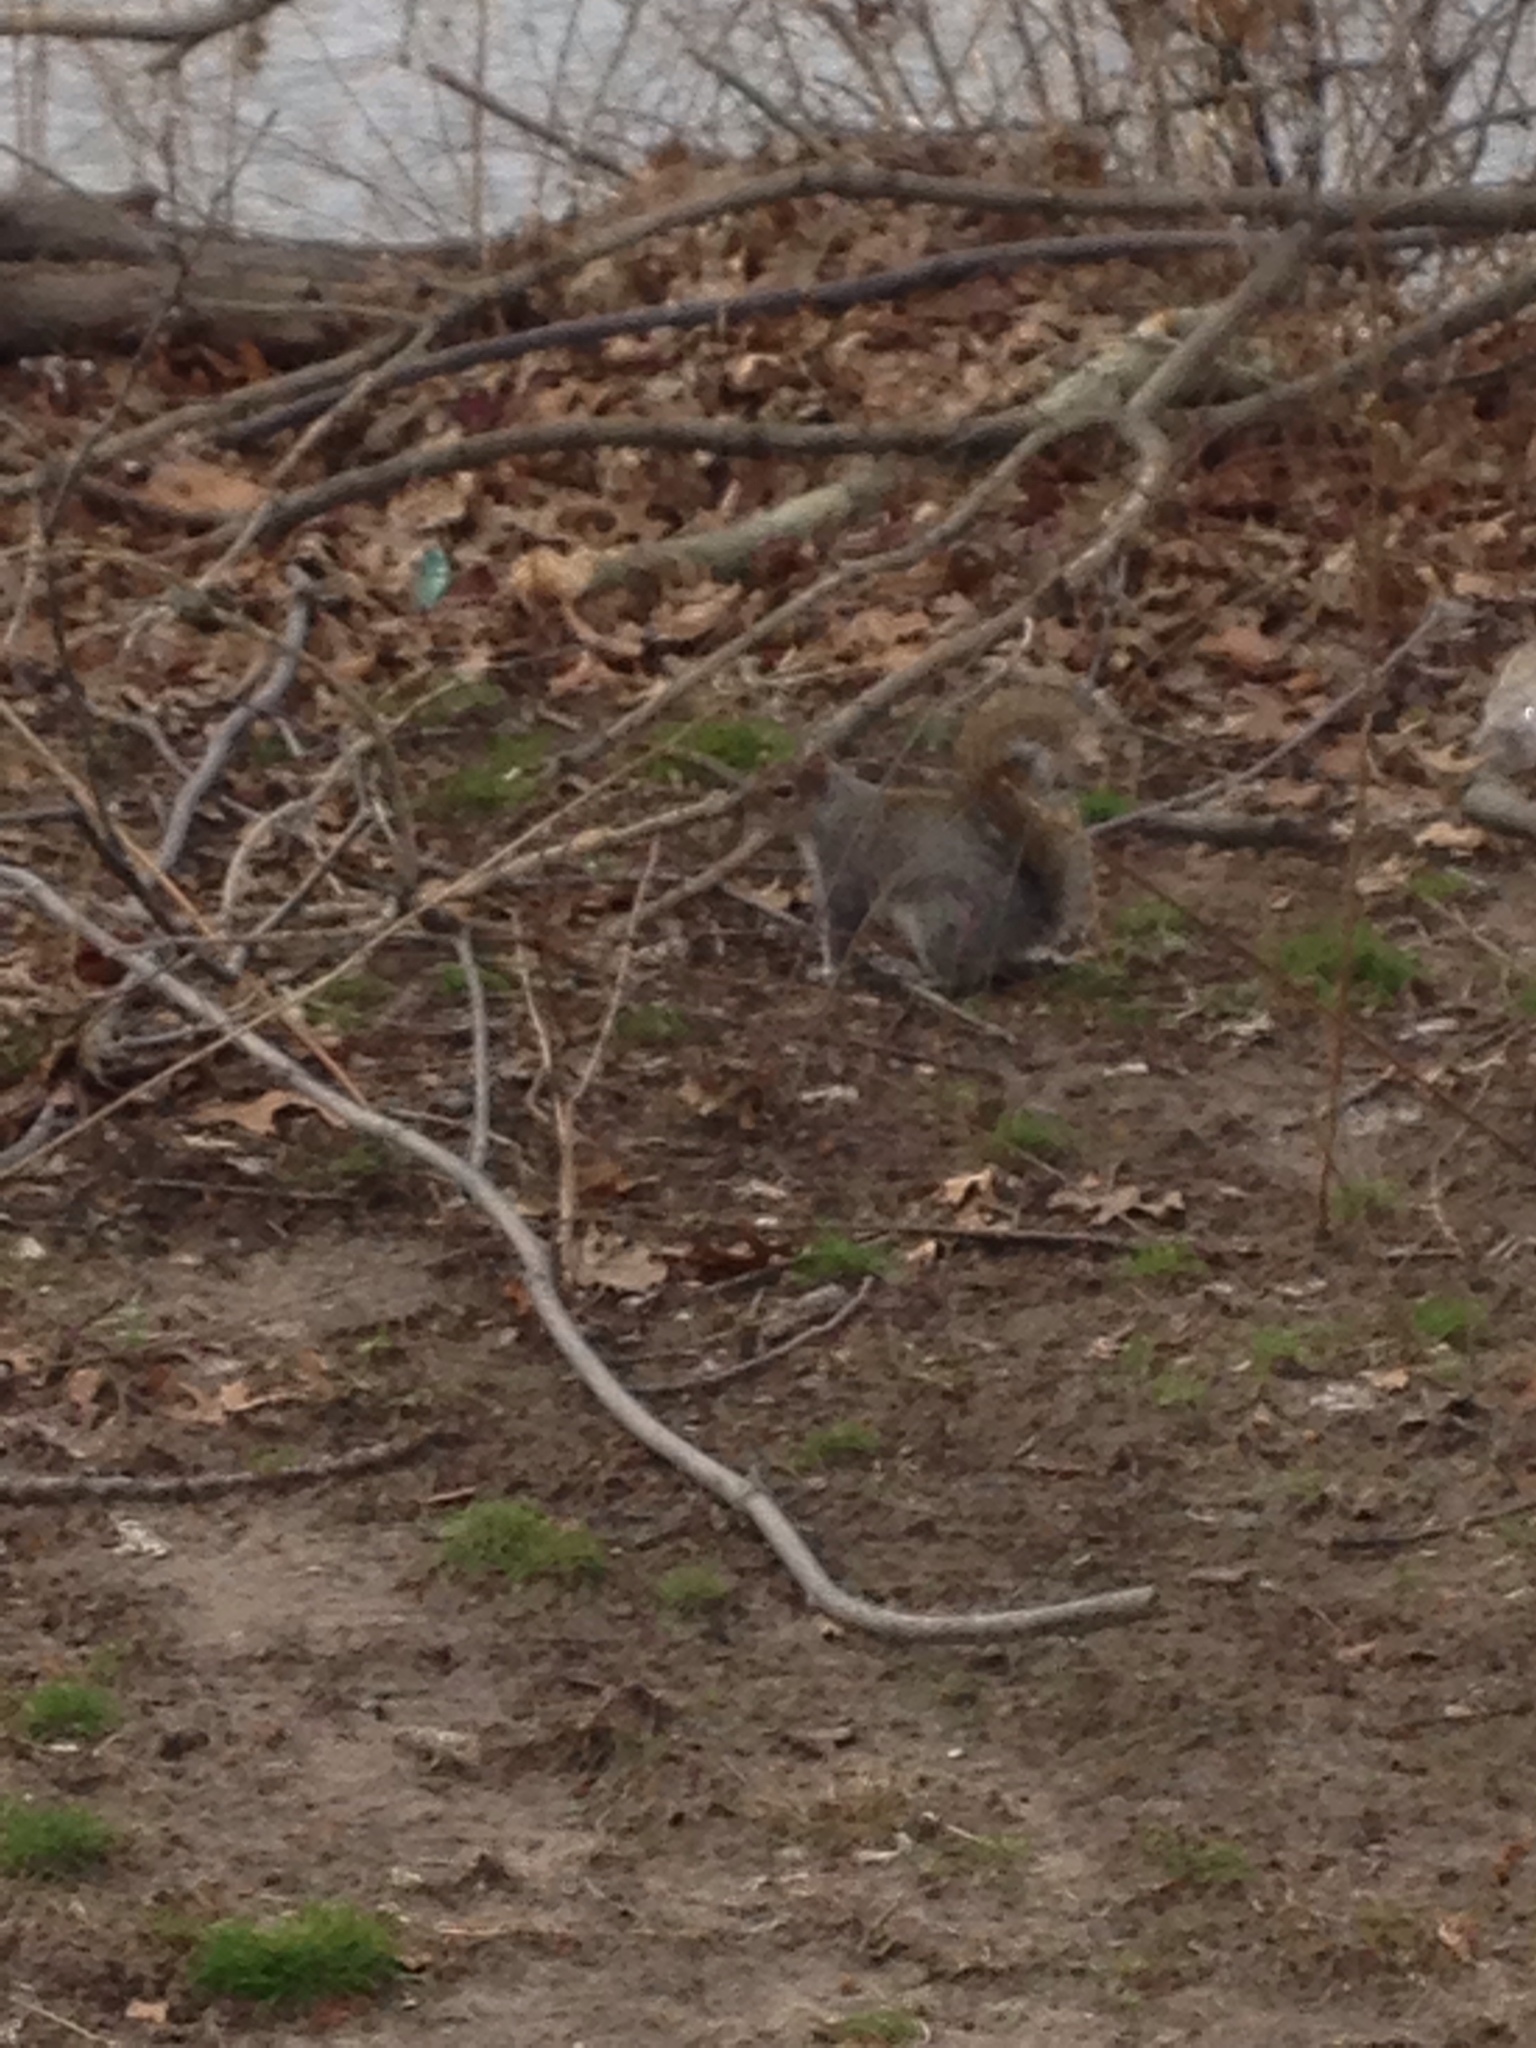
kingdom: Animalia
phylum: Chordata
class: Mammalia
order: Rodentia
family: Sciuridae
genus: Sciurus
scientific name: Sciurus carolinensis
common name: Eastern gray squirrel
